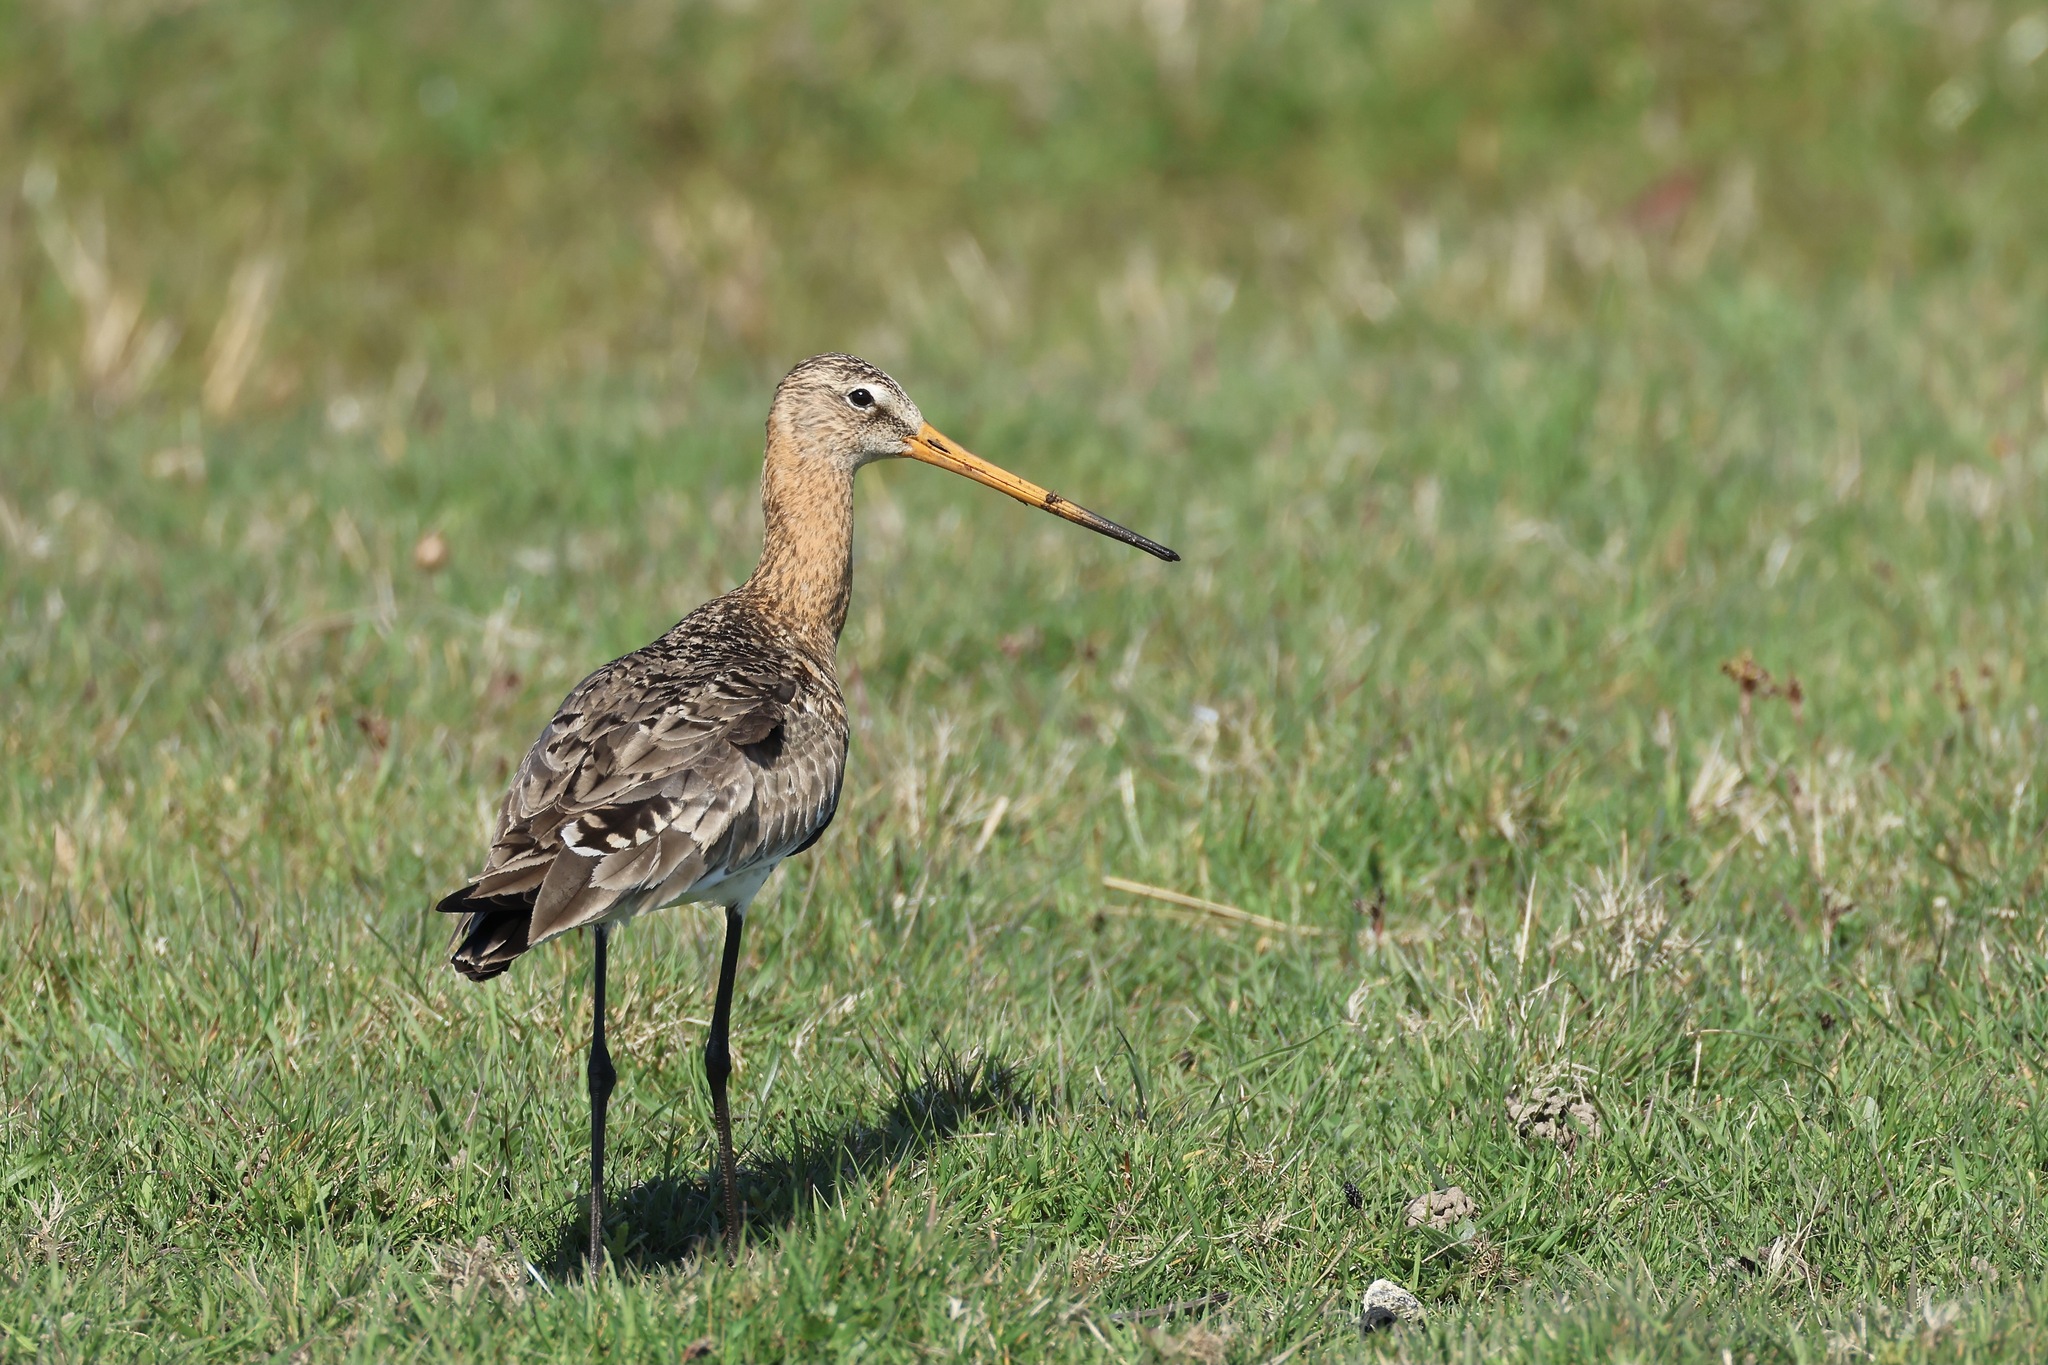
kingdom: Animalia
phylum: Chordata
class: Aves
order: Charadriiformes
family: Scolopacidae
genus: Limosa
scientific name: Limosa limosa
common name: Black-tailed godwit
